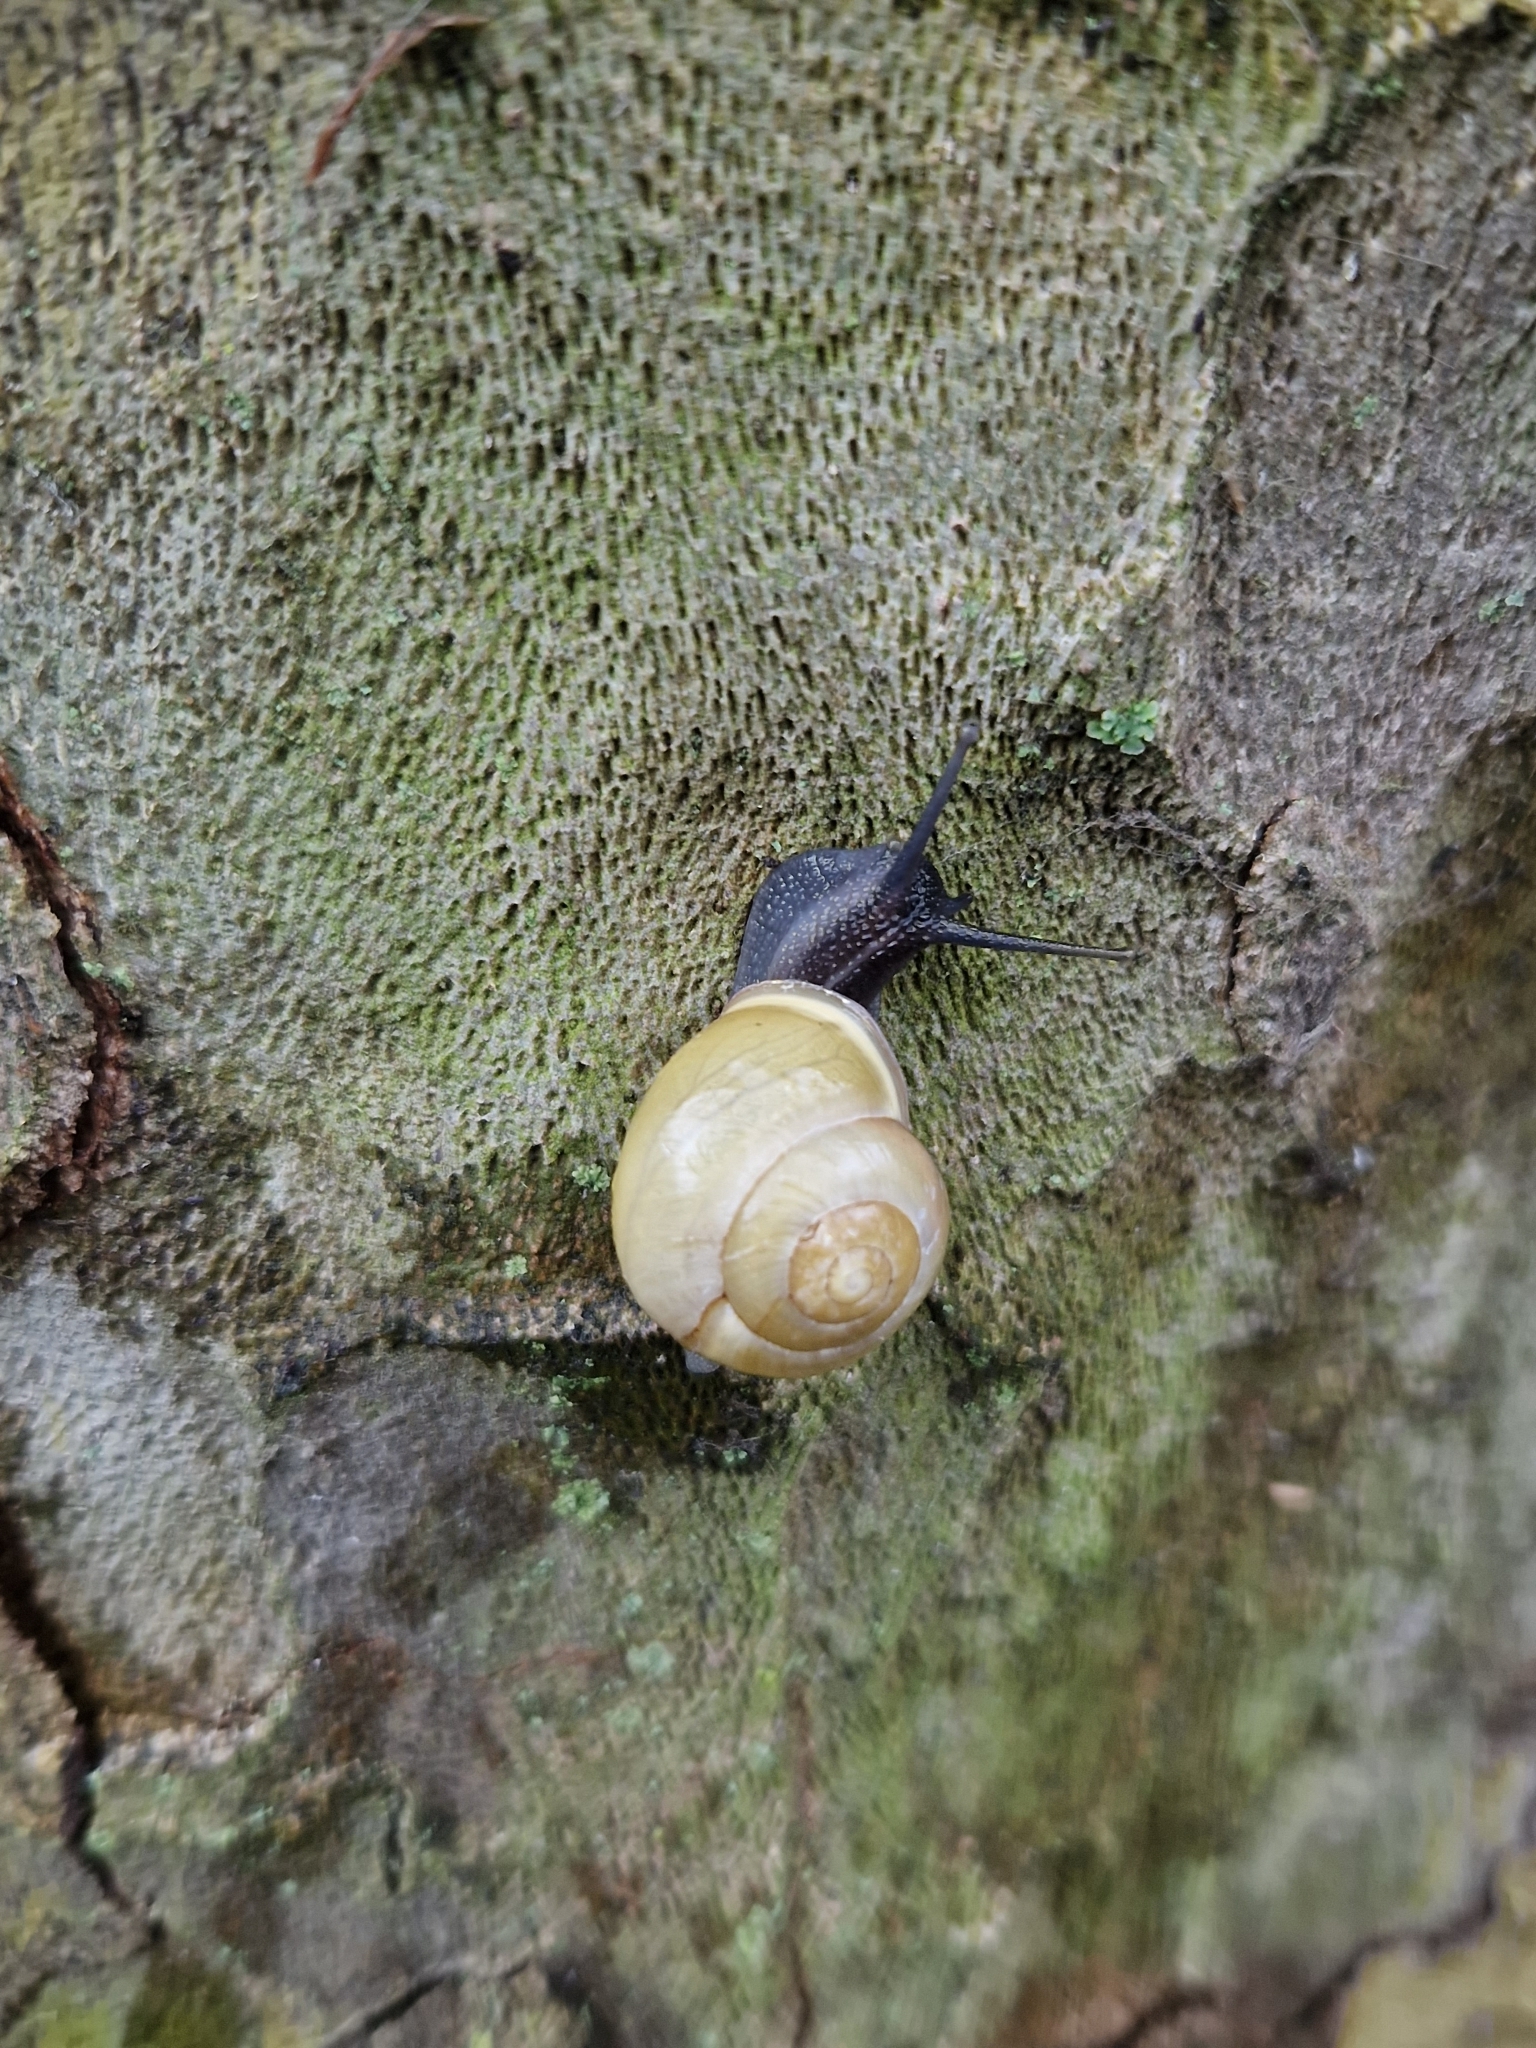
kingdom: Animalia
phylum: Mollusca
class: Gastropoda
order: Stylommatophora
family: Helicidae
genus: Cepaea
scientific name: Cepaea hortensis
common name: White-lip gardensnail
